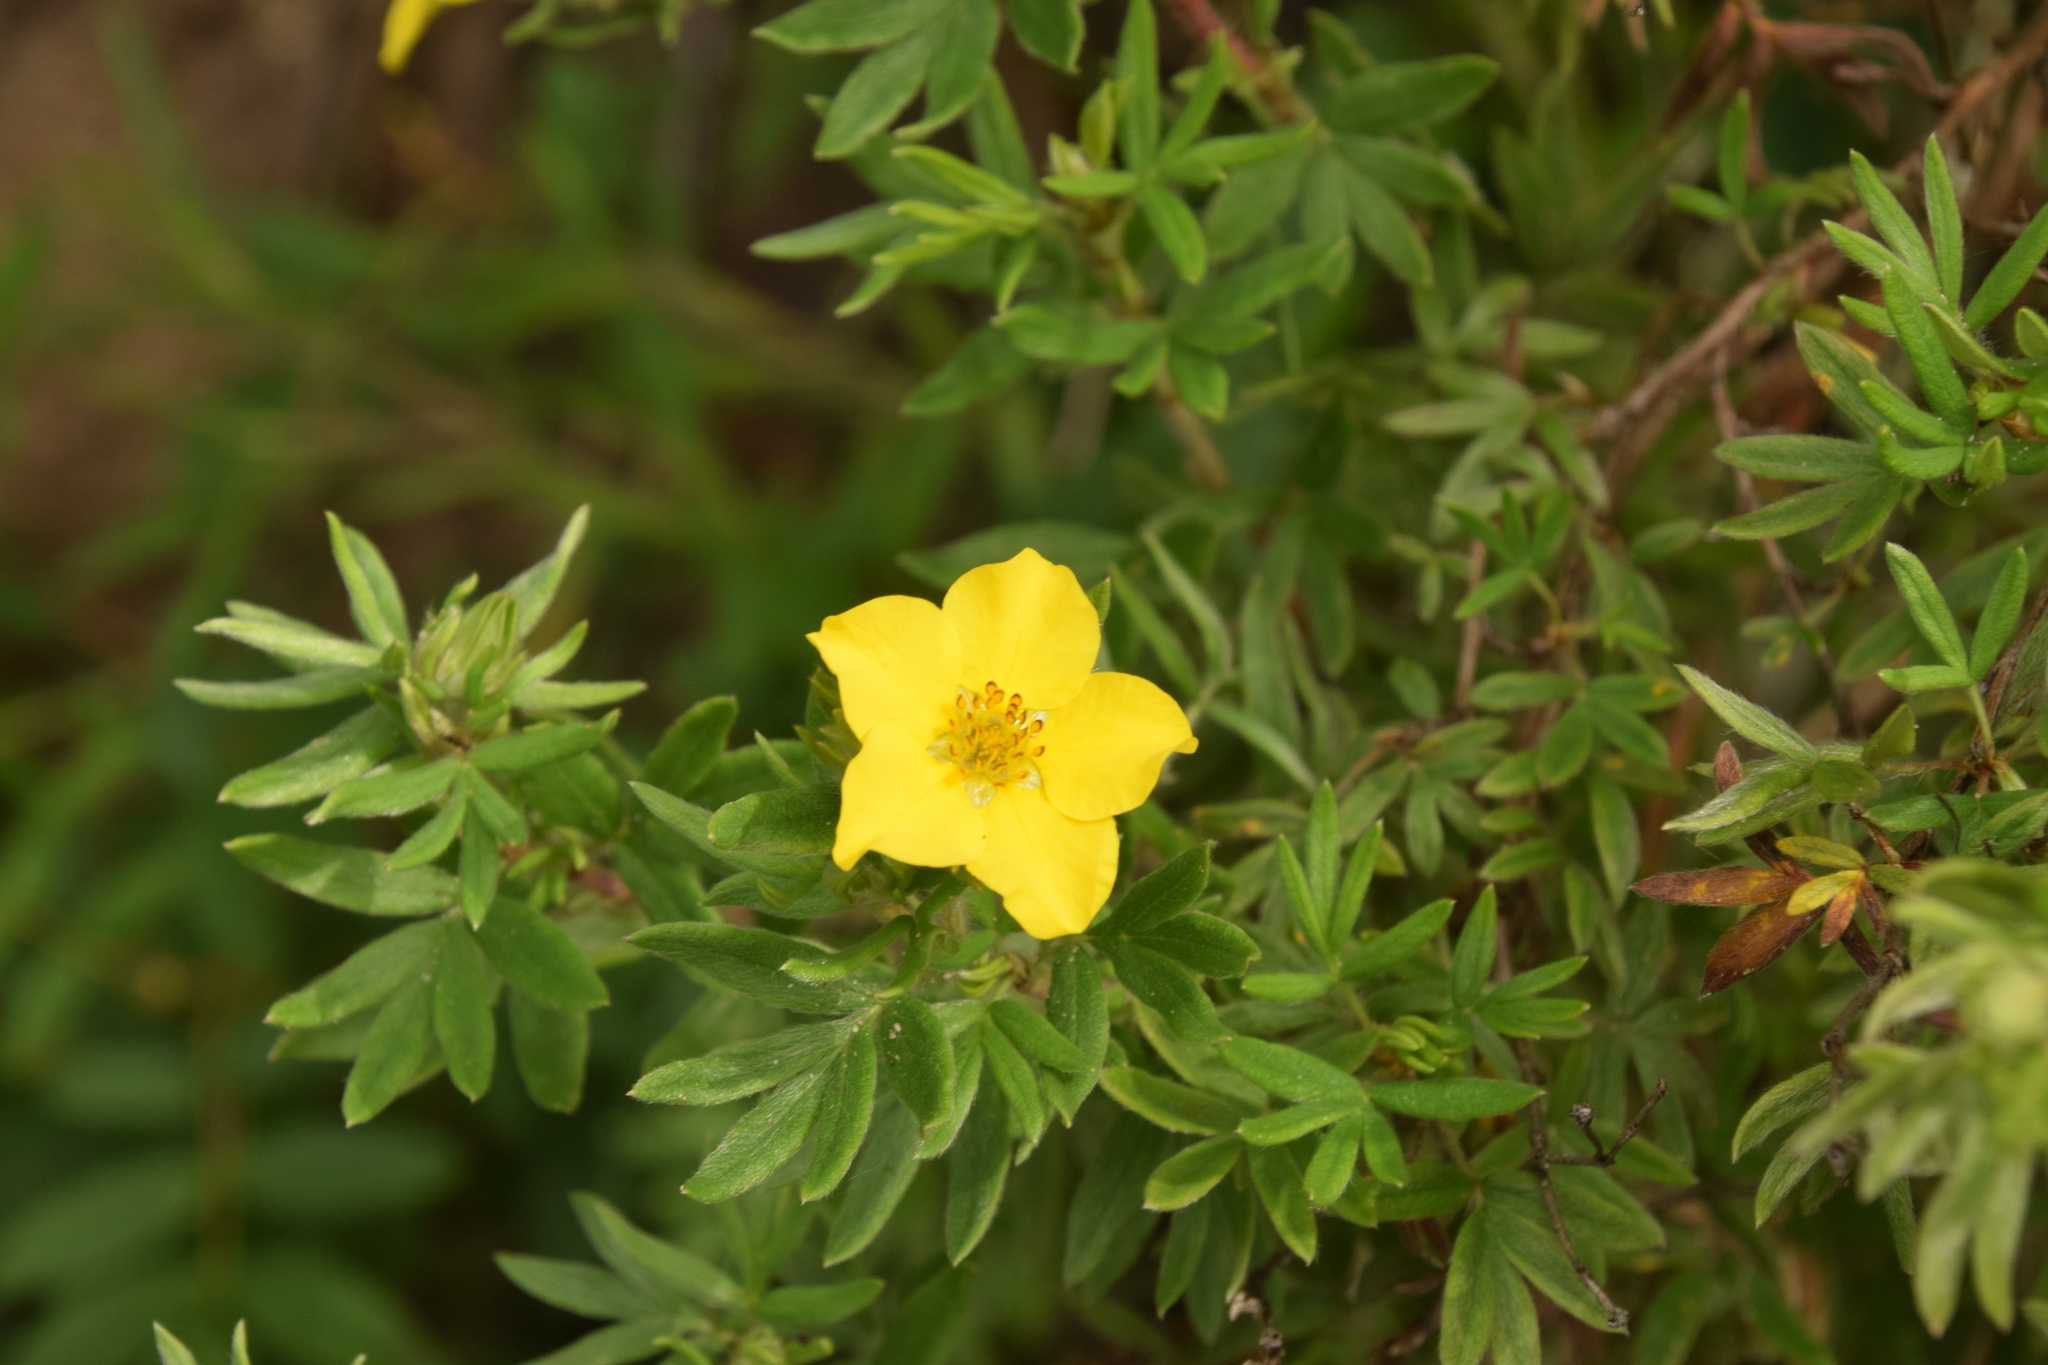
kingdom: Plantae
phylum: Tracheophyta
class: Magnoliopsida
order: Rosales
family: Rosaceae
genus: Dasiphora
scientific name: Dasiphora fruticosa
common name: Shrubby cinquefoil
